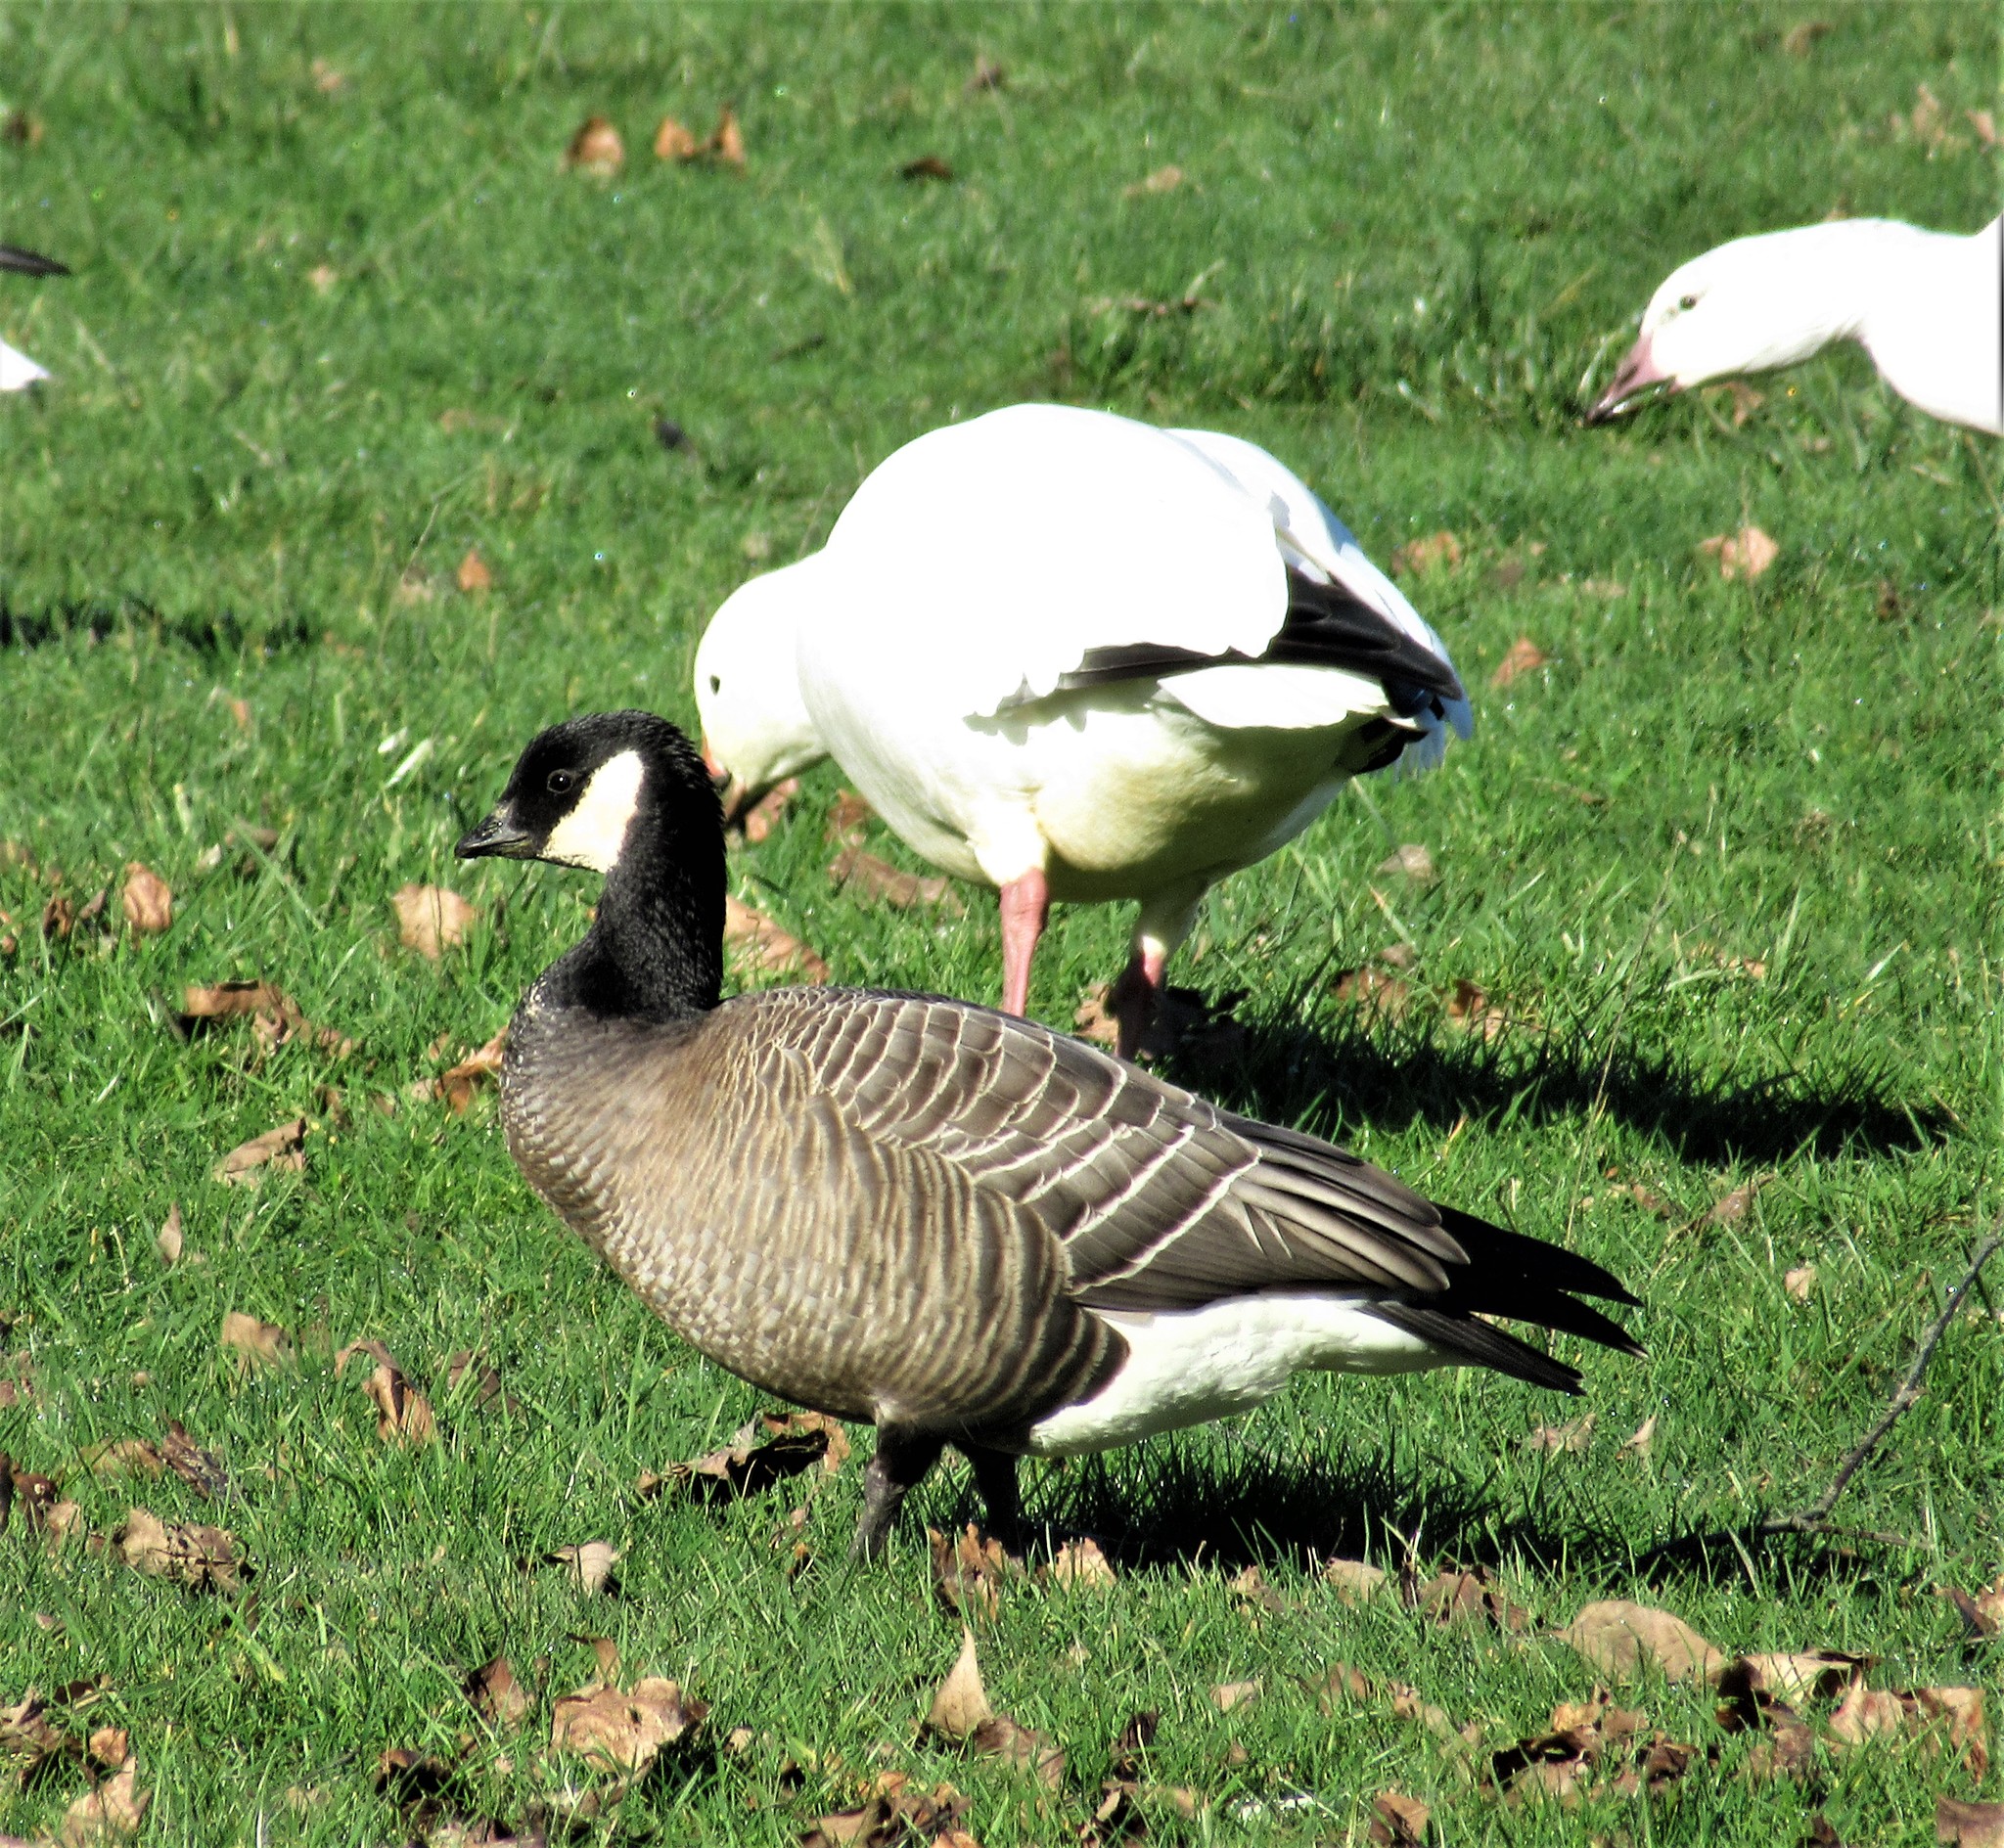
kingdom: Animalia
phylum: Chordata
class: Aves
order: Anseriformes
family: Anatidae
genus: Branta
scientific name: Branta hutchinsii
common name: Cackling goose
